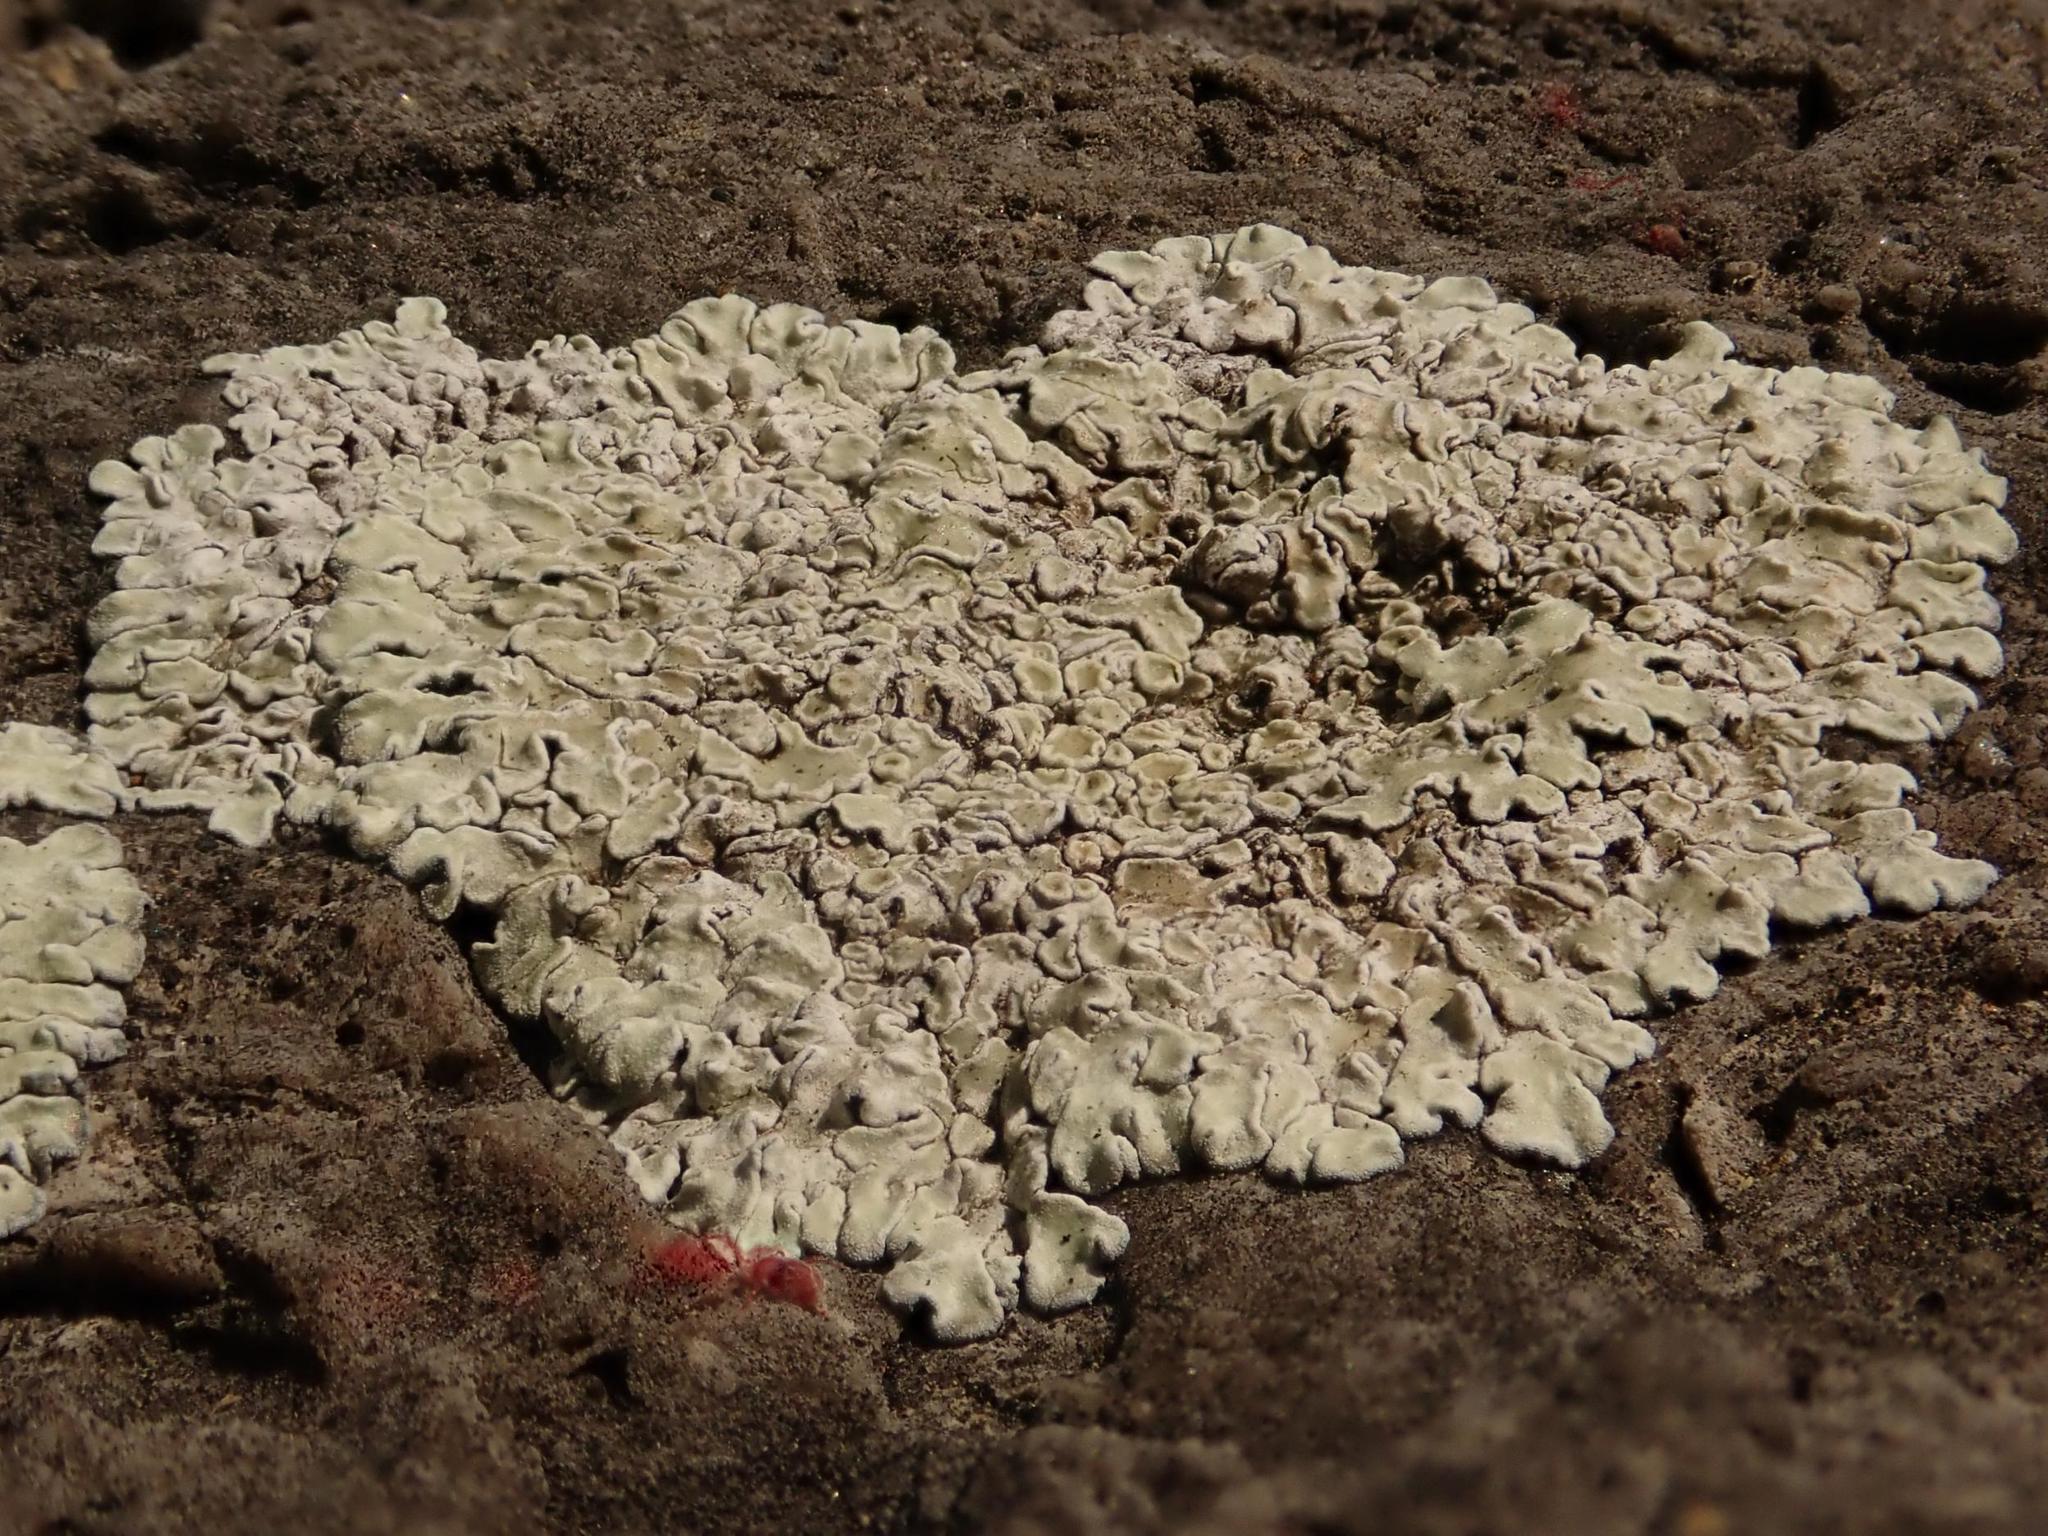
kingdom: Fungi
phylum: Ascomycota
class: Lecanoromycetes
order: Lecanorales
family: Lecanoraceae
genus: Protoparmeliopsis
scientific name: Protoparmeliopsis muralis
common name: Stonewall rim lichen
